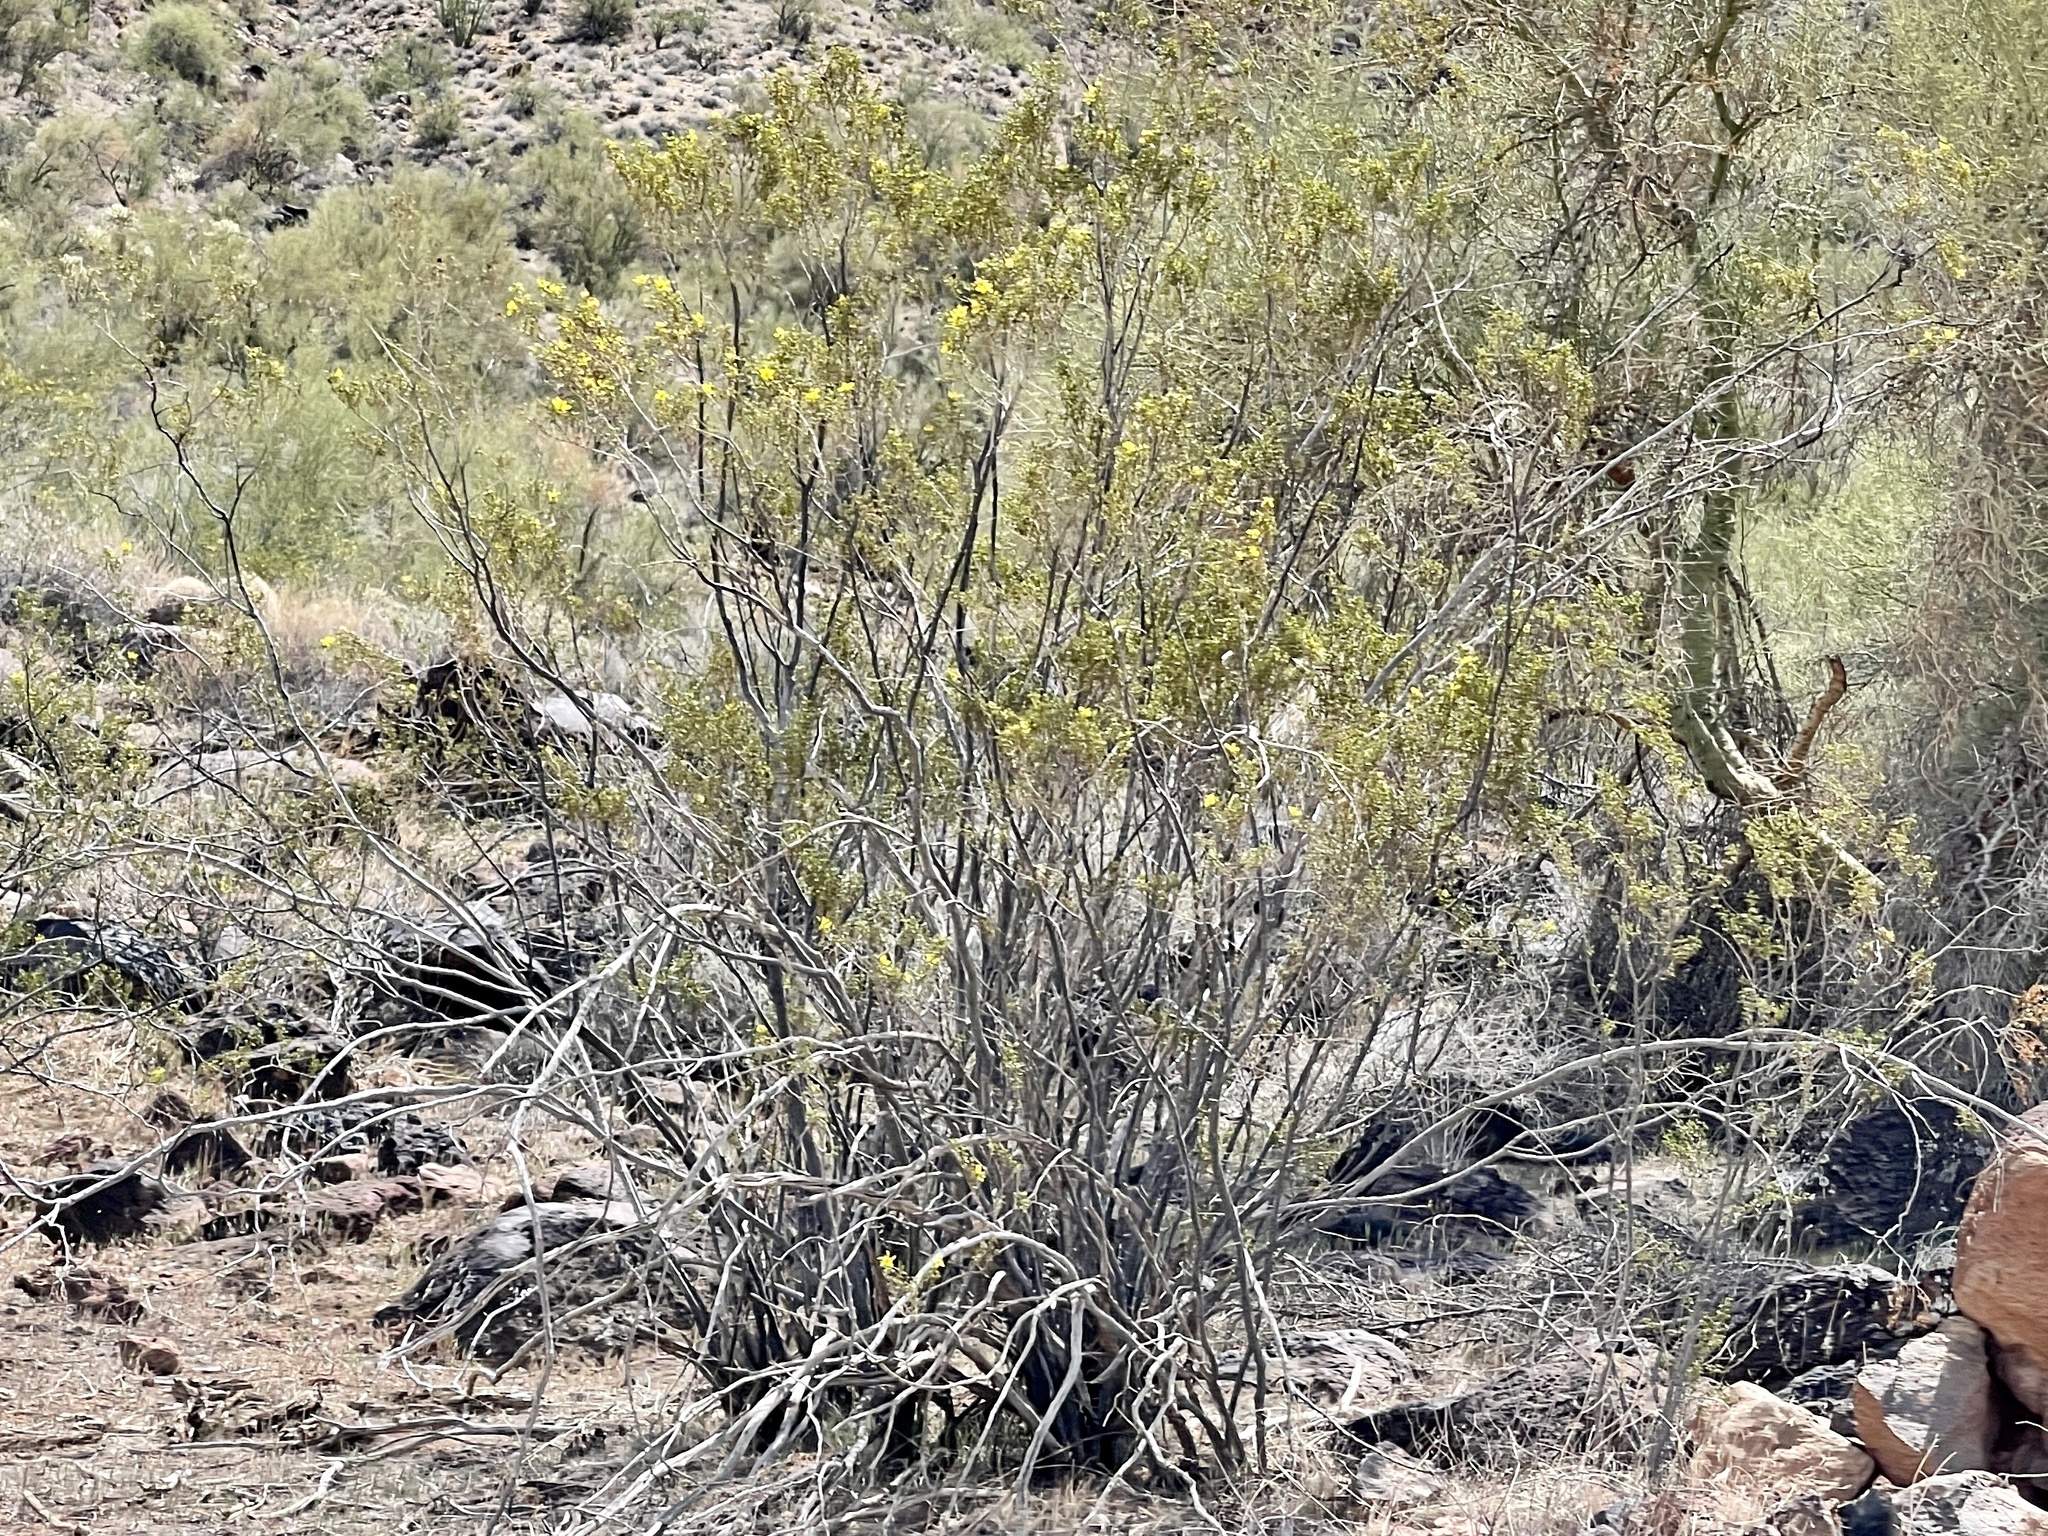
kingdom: Plantae
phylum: Tracheophyta
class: Magnoliopsida
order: Zygophyllales
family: Zygophyllaceae
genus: Larrea
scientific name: Larrea tridentata
